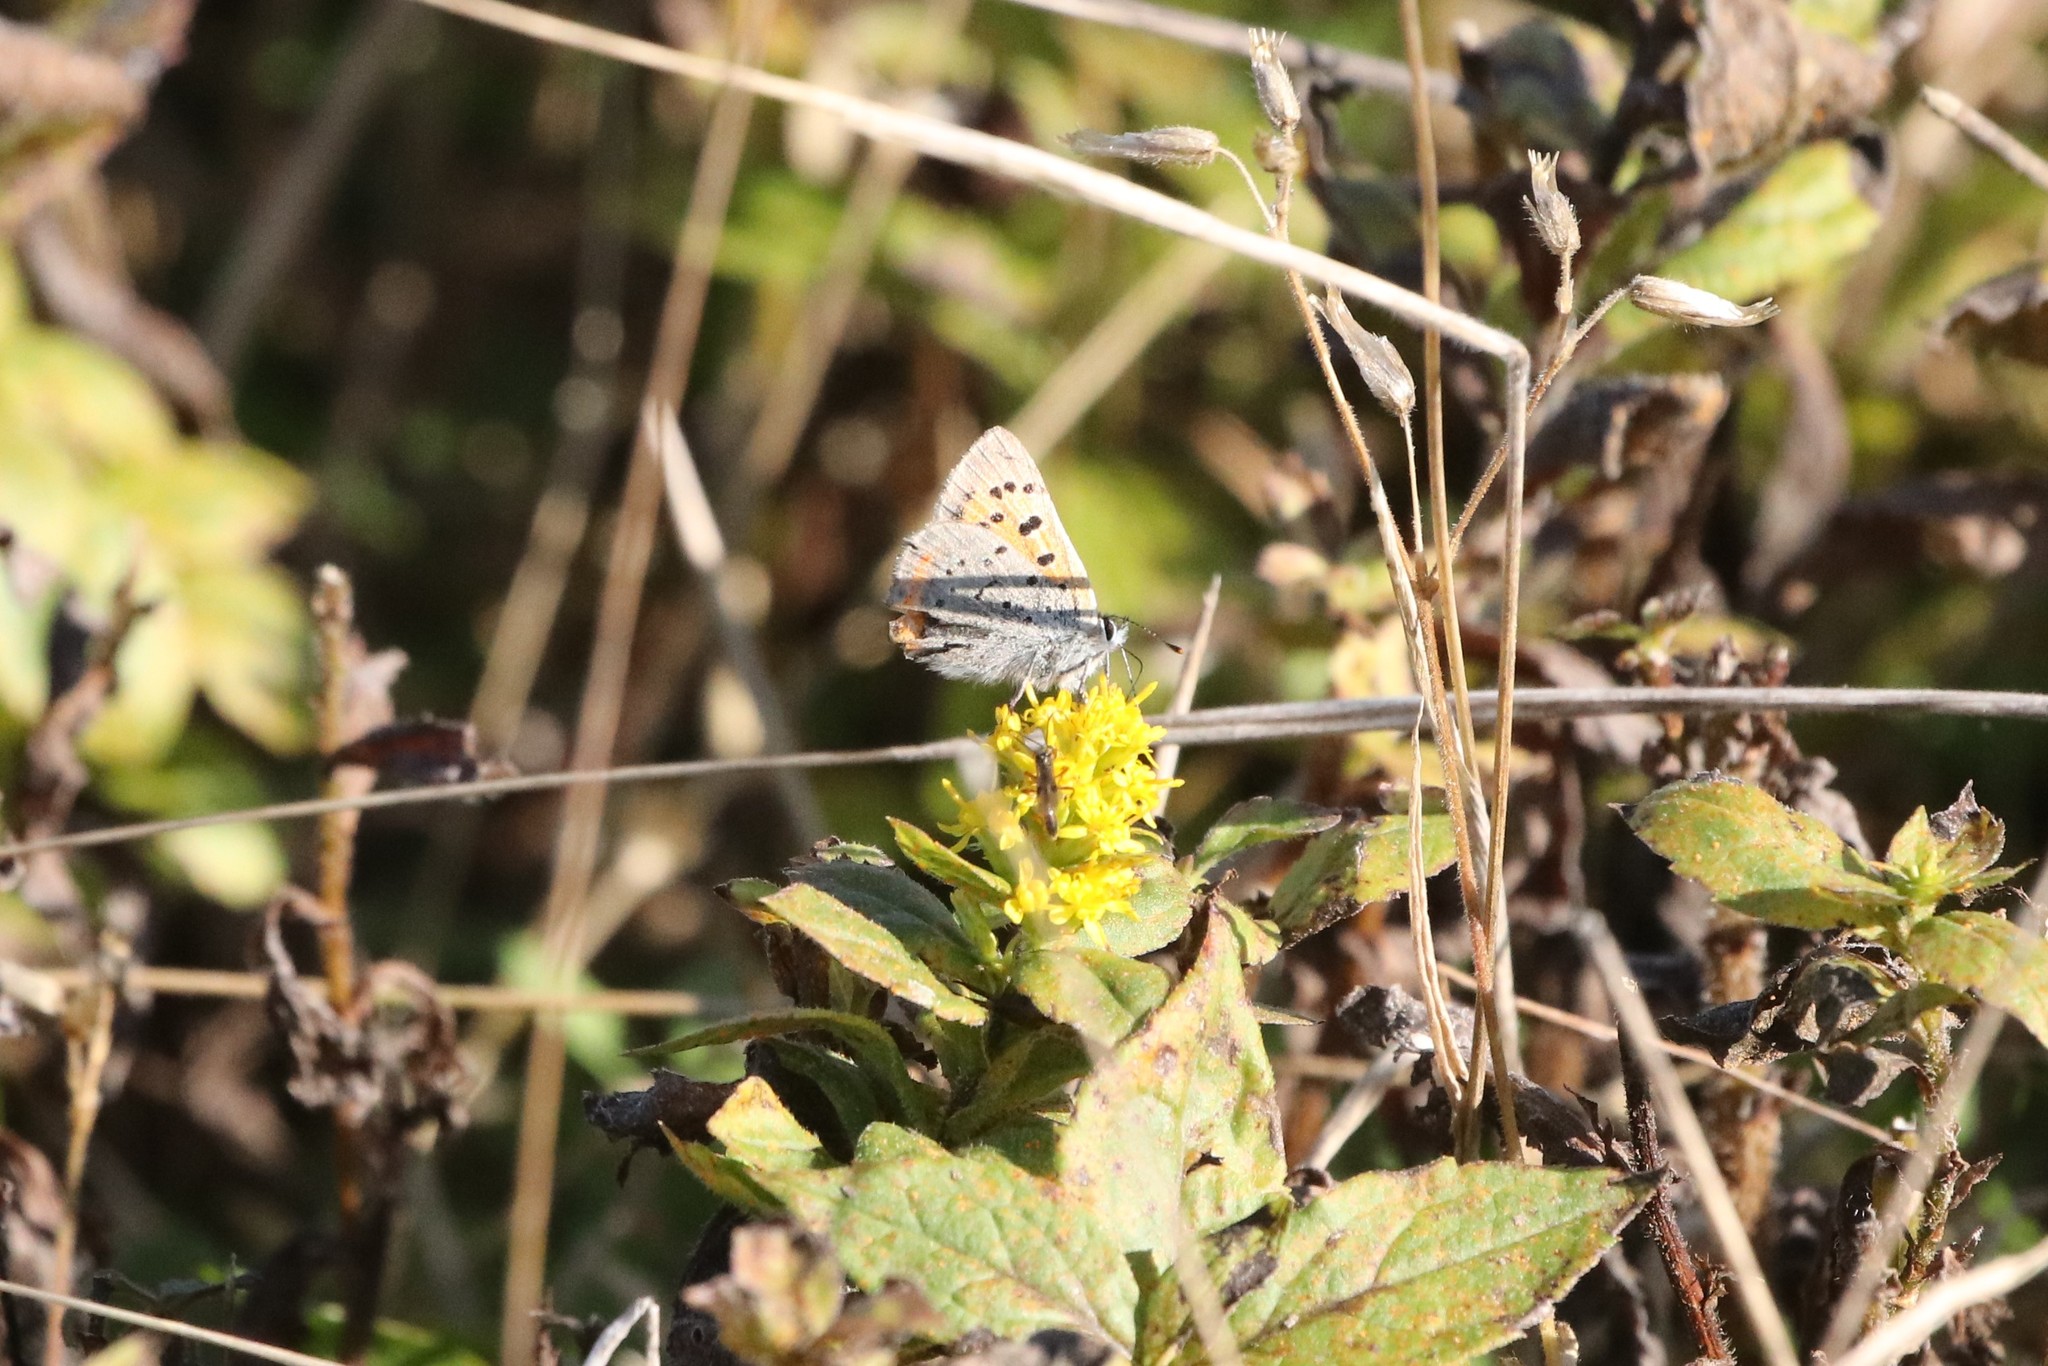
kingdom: Animalia
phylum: Arthropoda
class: Insecta
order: Lepidoptera
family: Lycaenidae
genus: Lycaena
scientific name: Lycaena hypophlaeas
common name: American copper
